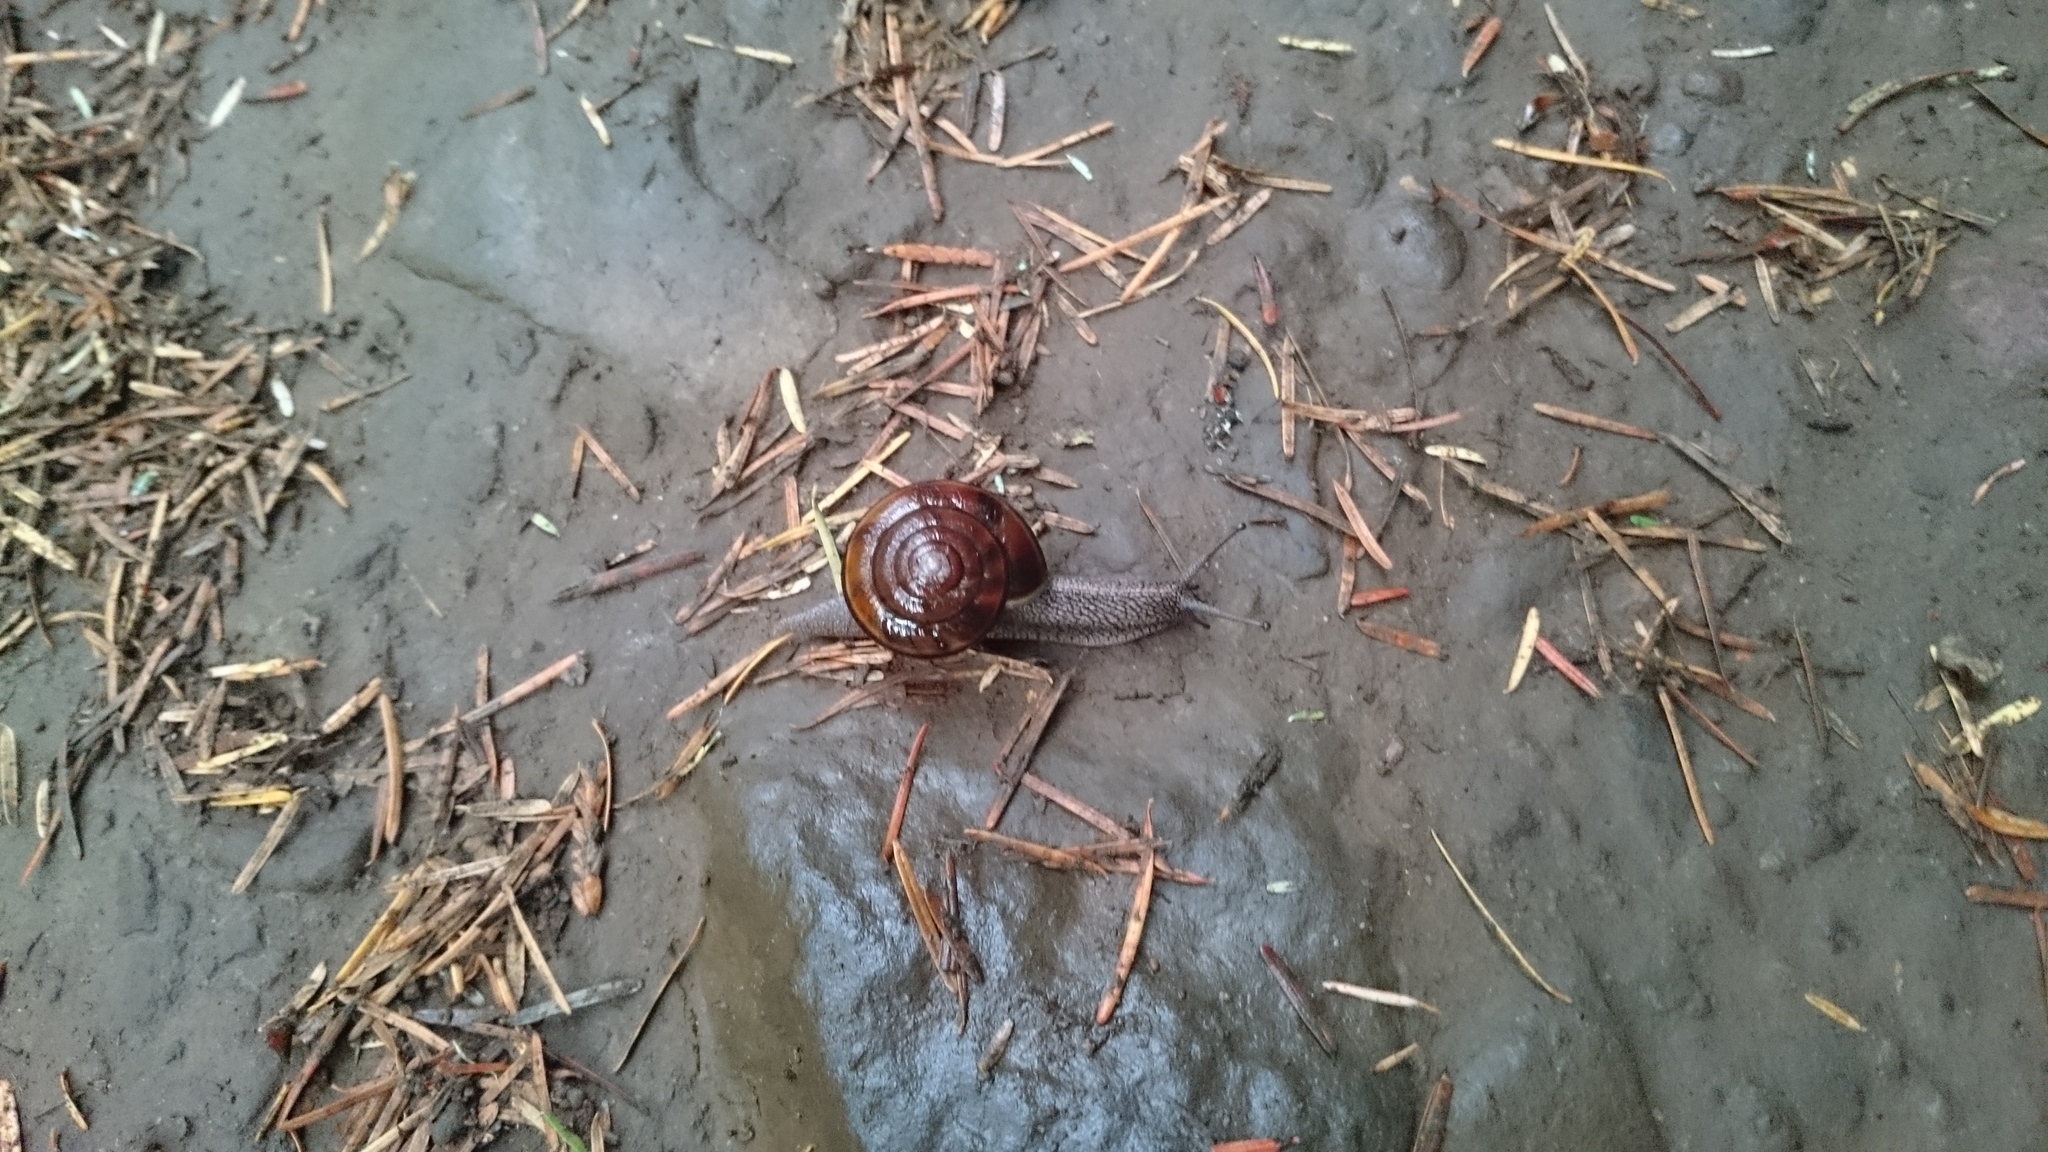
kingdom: Animalia
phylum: Mollusca
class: Gastropoda
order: Stylommatophora
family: Xanthonychidae
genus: Monadenia
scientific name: Monadenia fidelis
